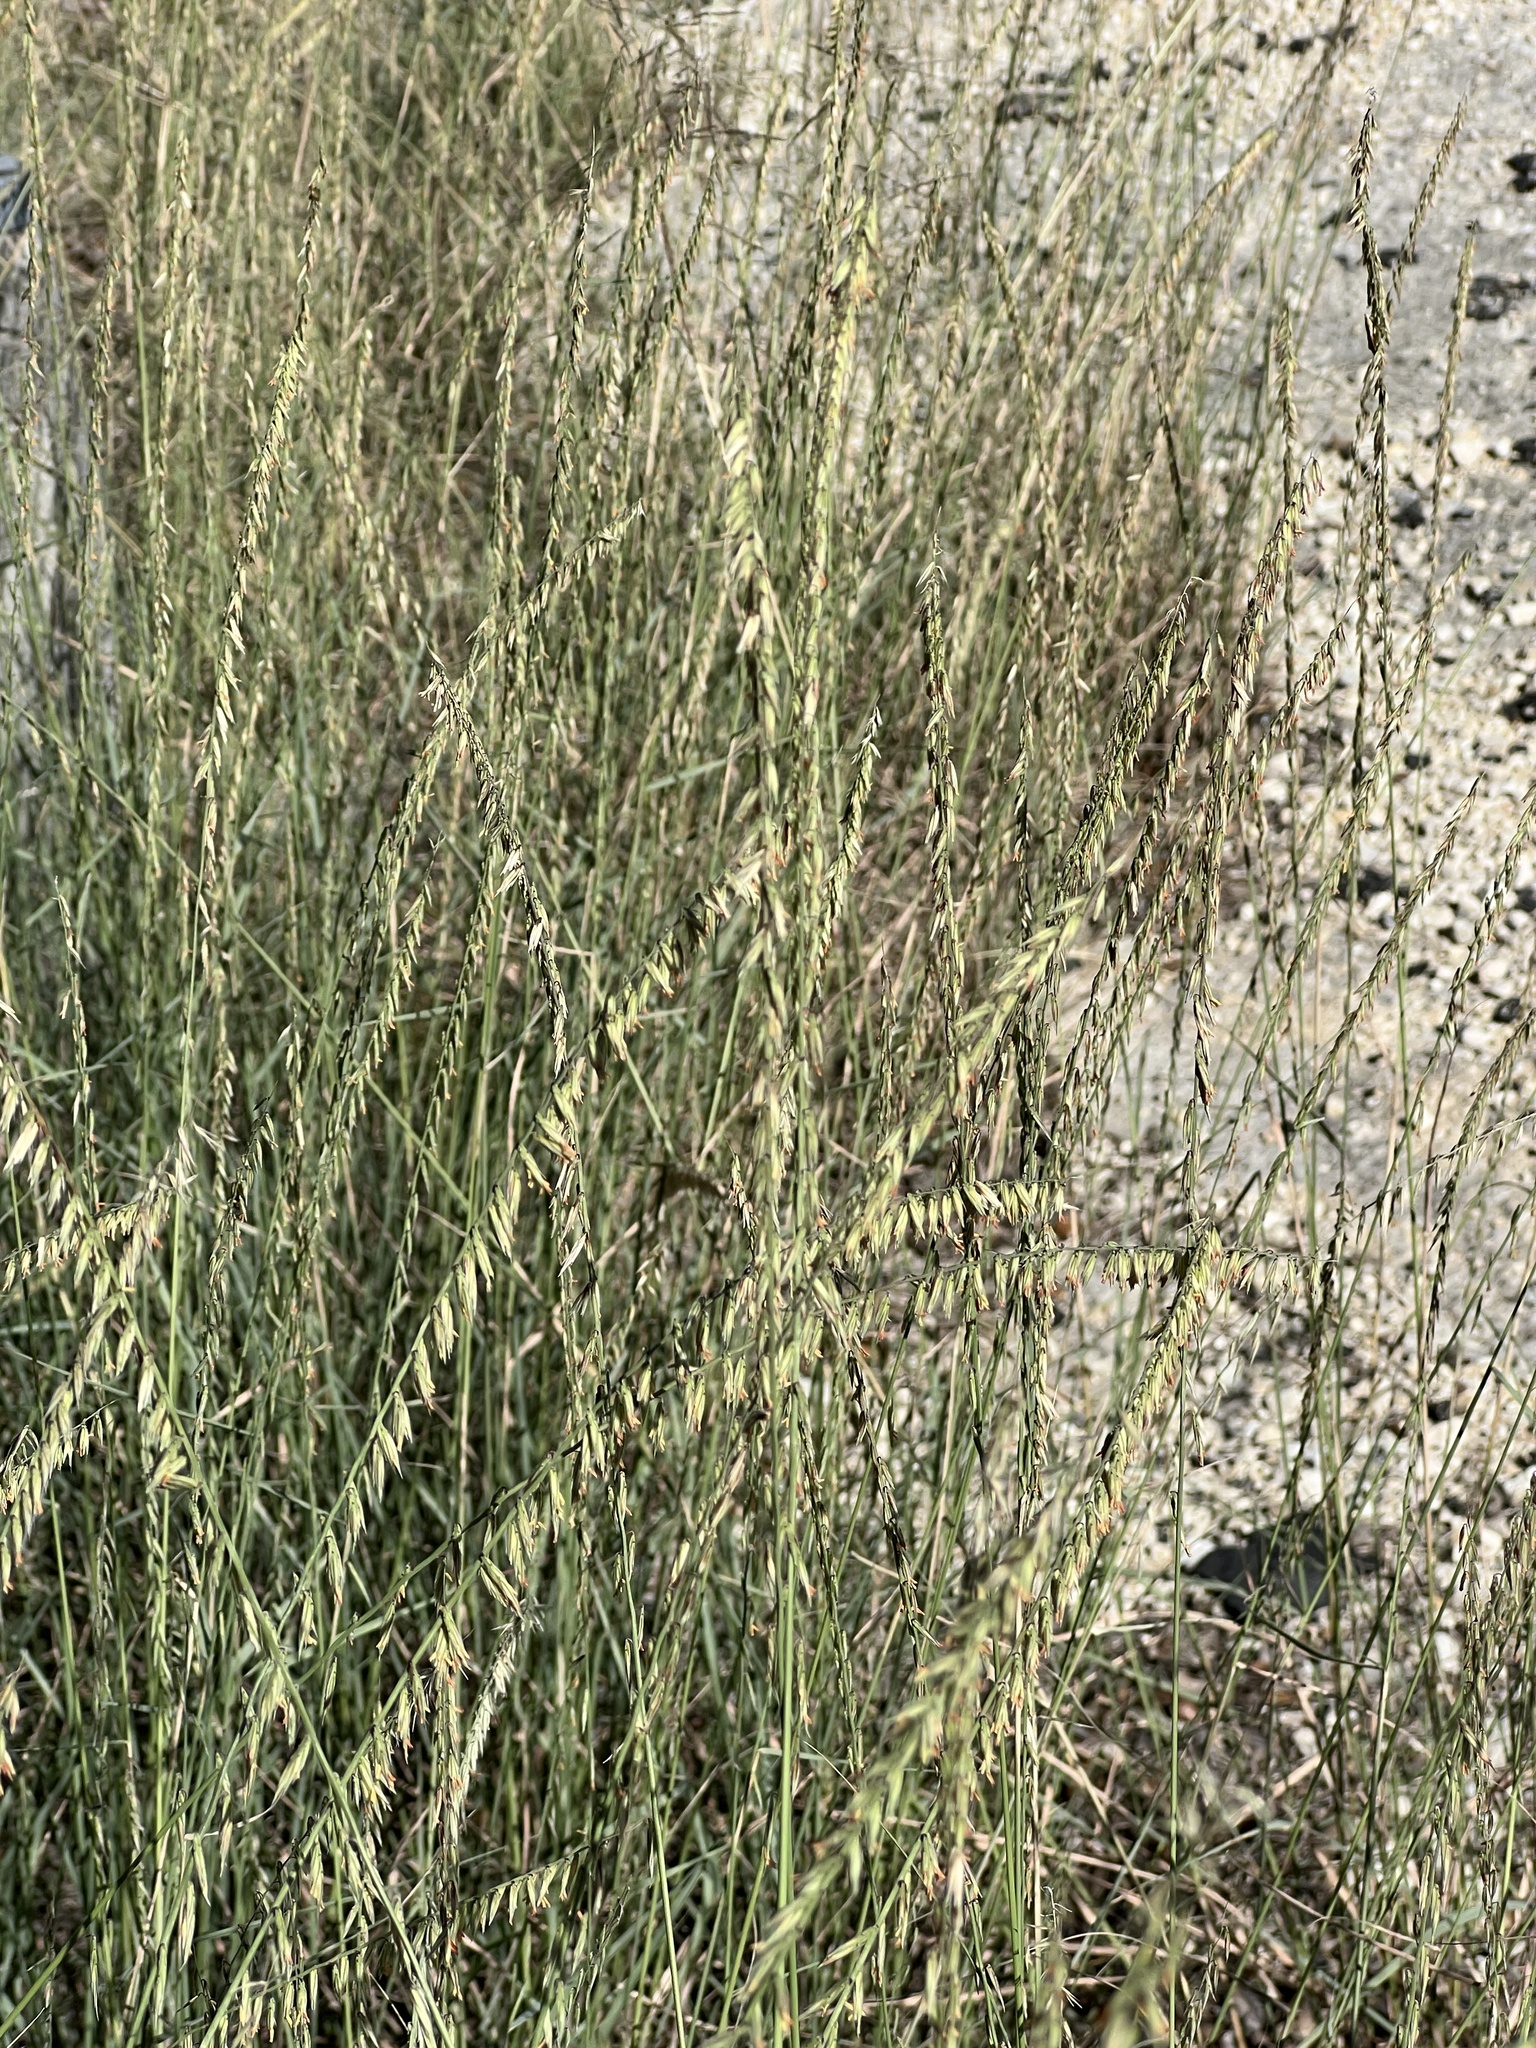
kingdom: Plantae
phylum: Tracheophyta
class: Liliopsida
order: Poales
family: Poaceae
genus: Bouteloua
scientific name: Bouteloua curtipendula
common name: Side-oats grama
